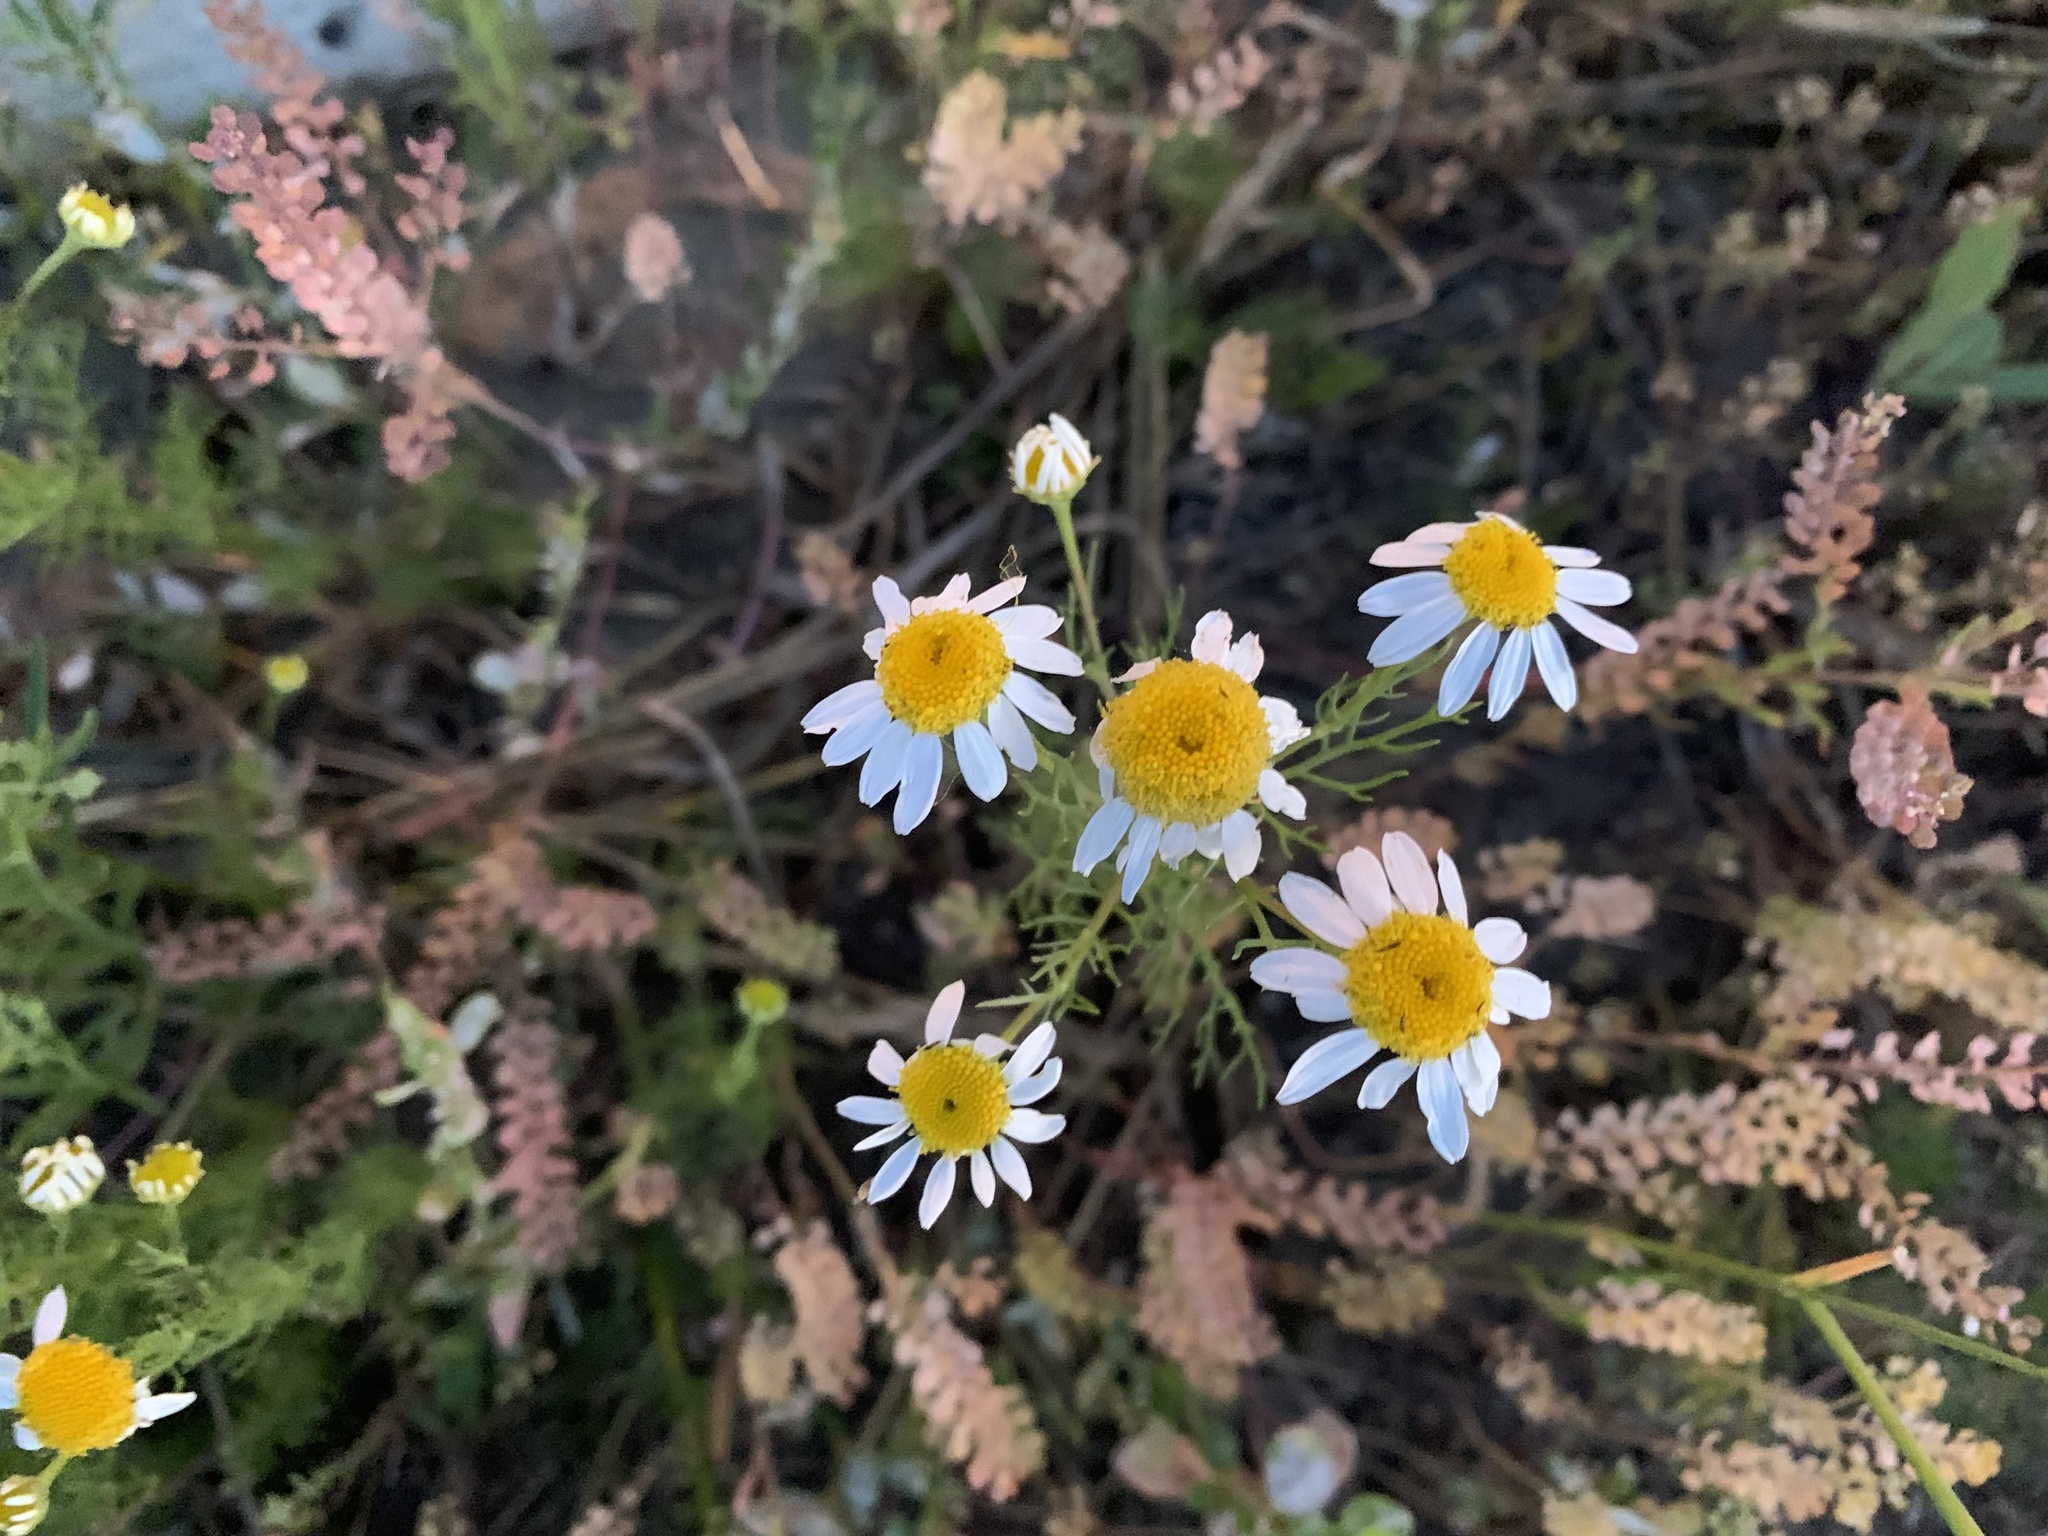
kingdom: Plantae
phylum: Tracheophyta
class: Magnoliopsida
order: Asterales
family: Asteraceae
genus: Tripleurospermum
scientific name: Tripleurospermum inodorum
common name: Scentless mayweed
